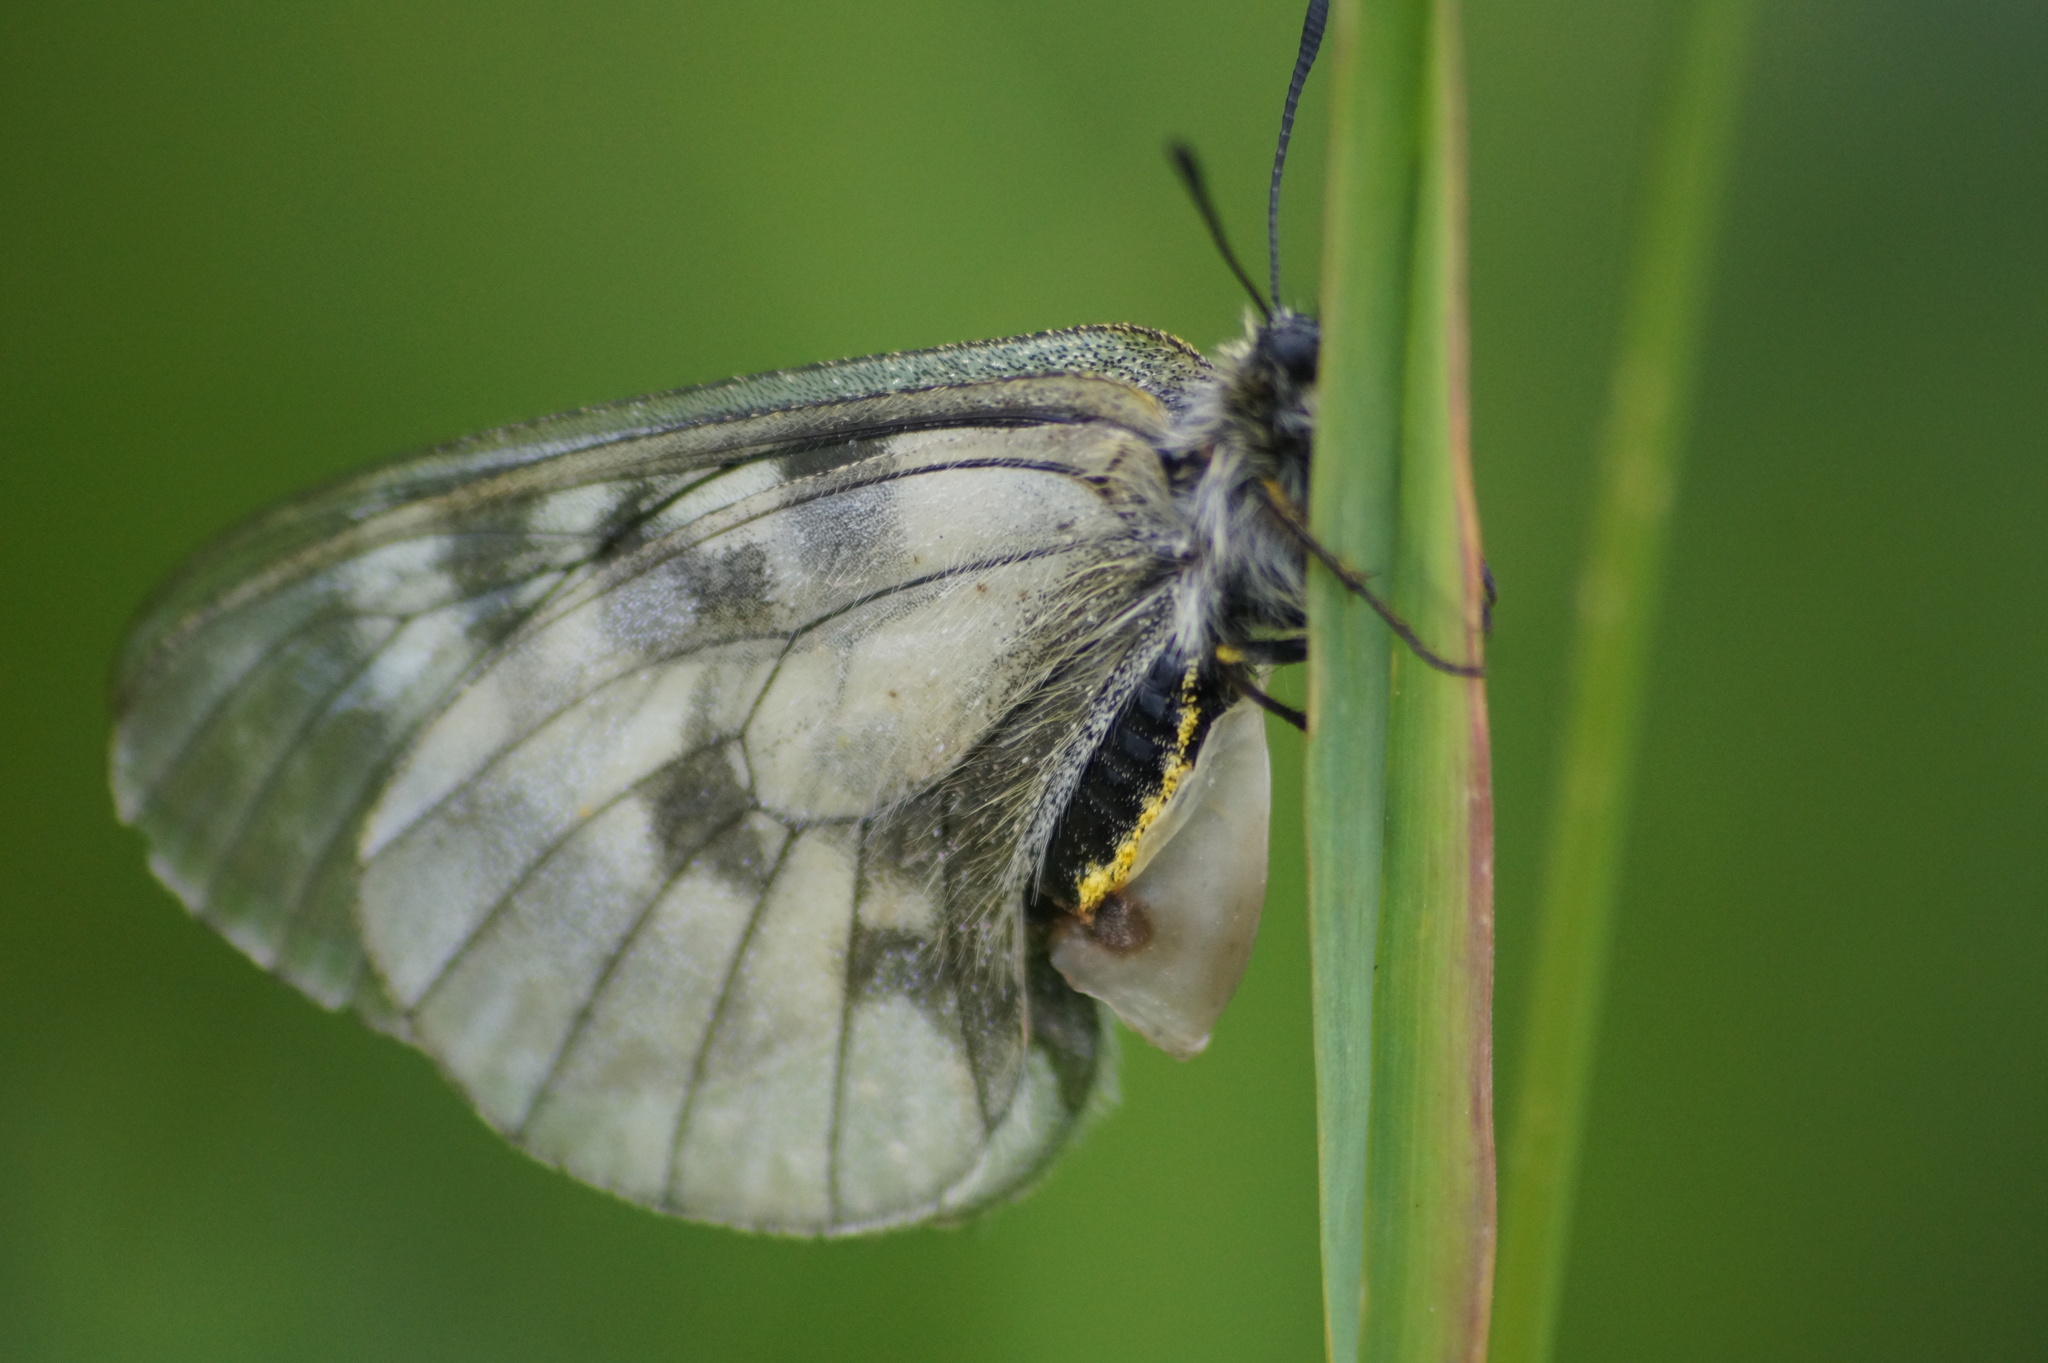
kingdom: Animalia
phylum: Arthropoda
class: Insecta
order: Lepidoptera
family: Papilionidae
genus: Parnassius
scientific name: Parnassius mnemosyne
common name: Clouded apollo
